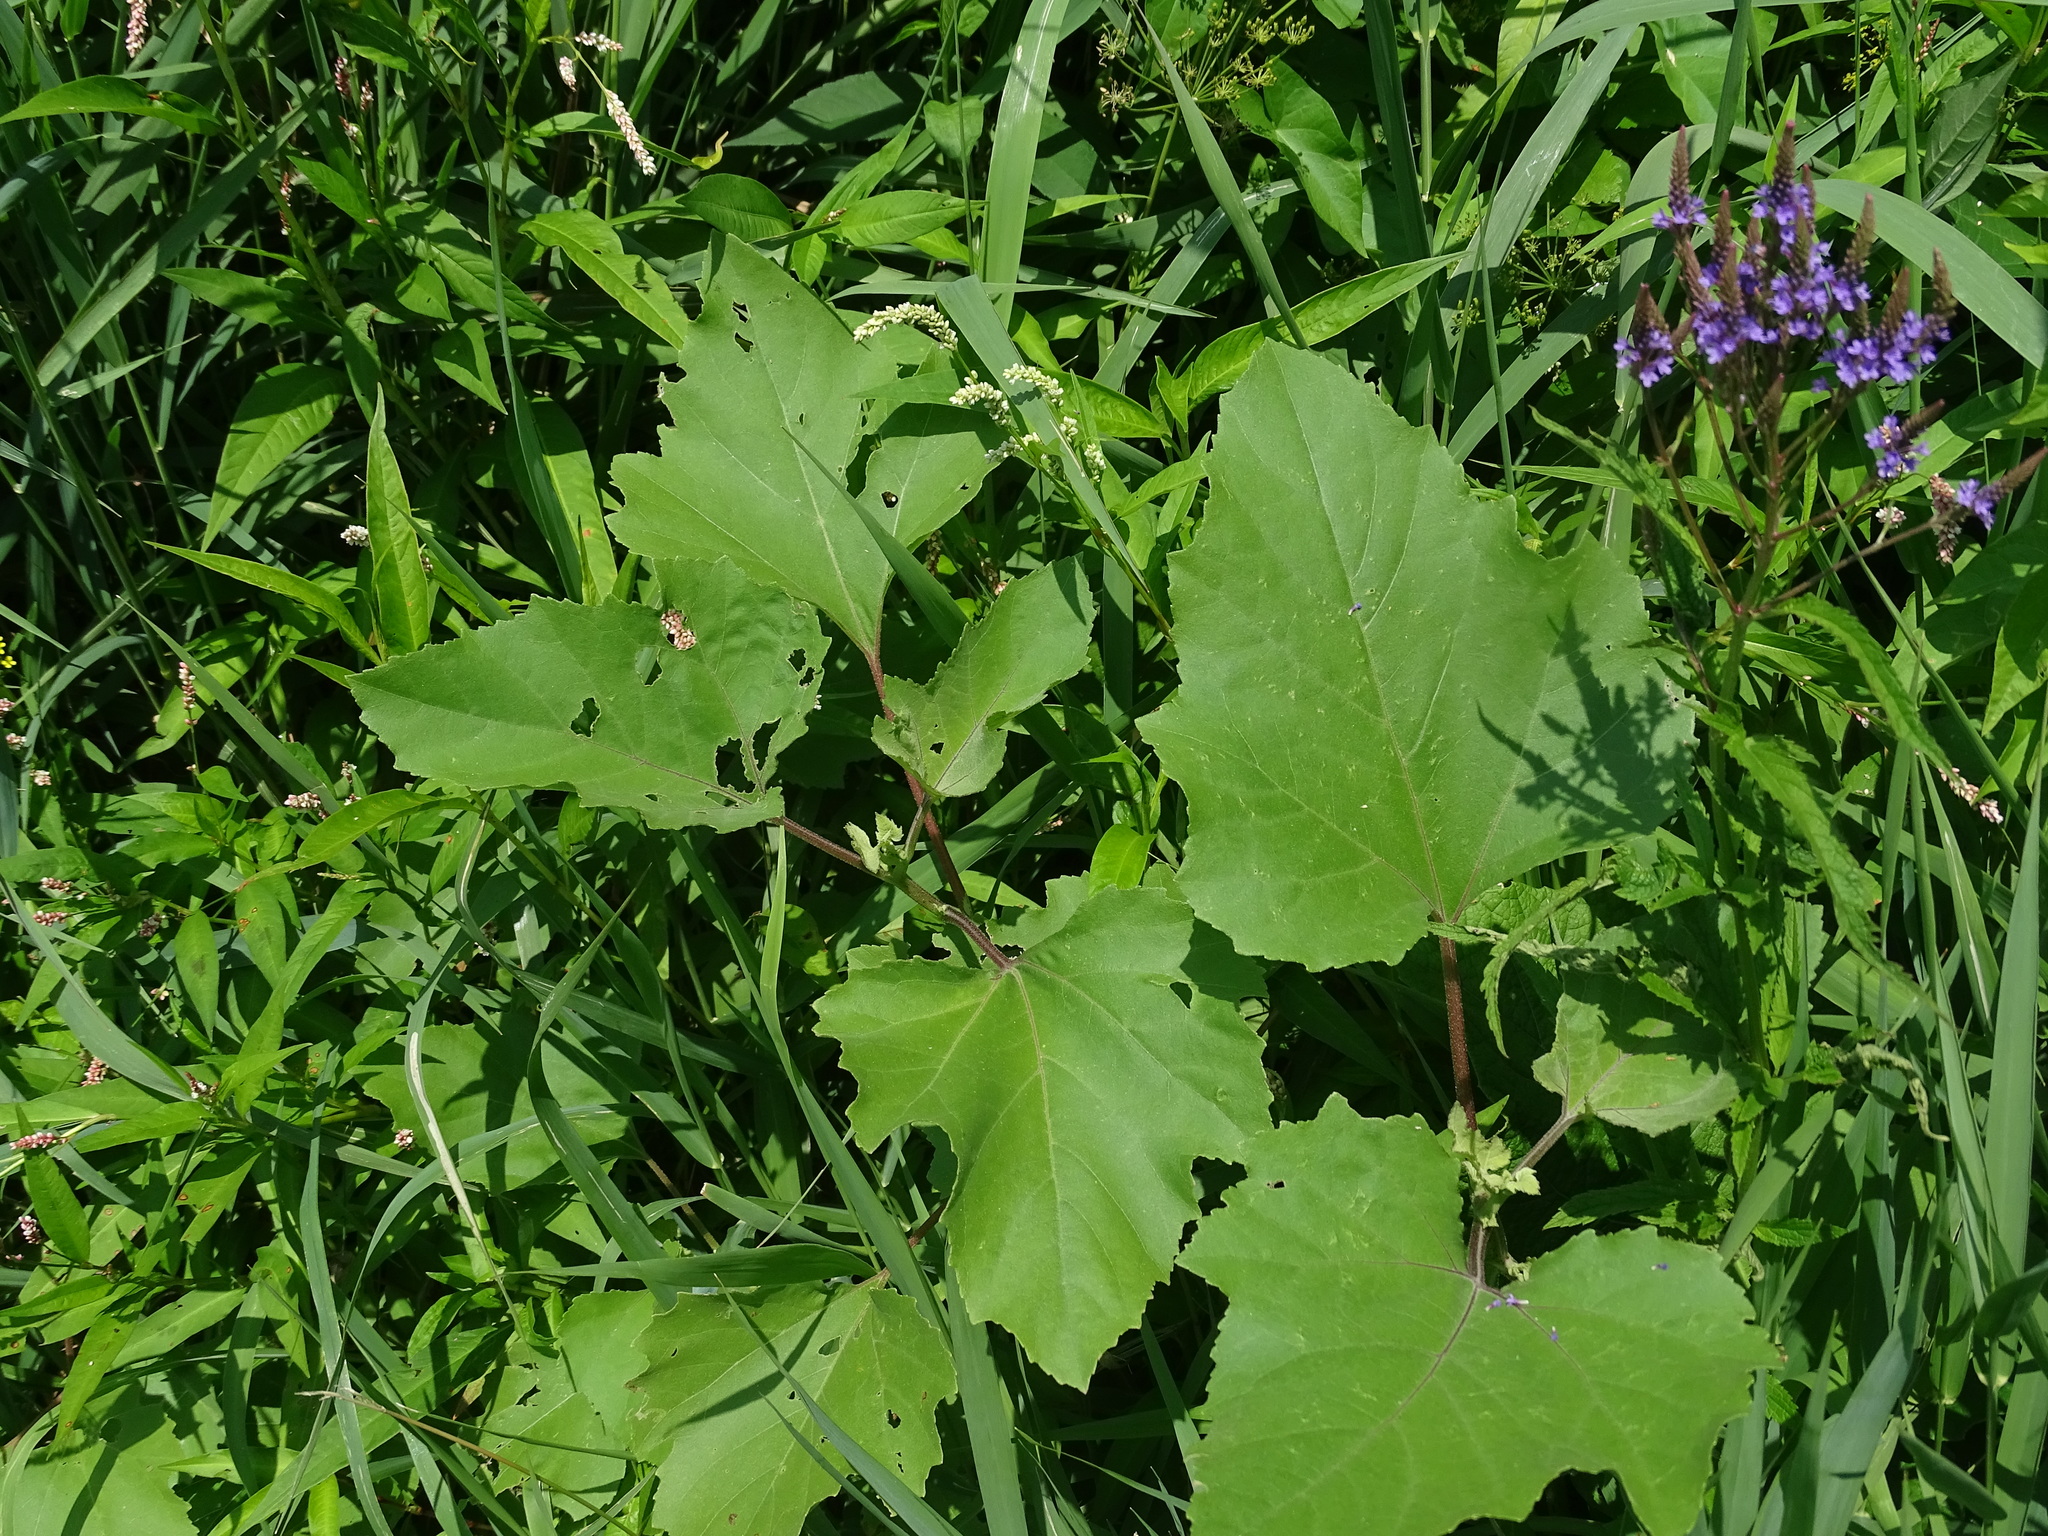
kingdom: Plantae
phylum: Tracheophyta
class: Magnoliopsida
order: Asterales
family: Asteraceae
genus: Xanthium
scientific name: Xanthium strumarium
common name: Rough cocklebur
